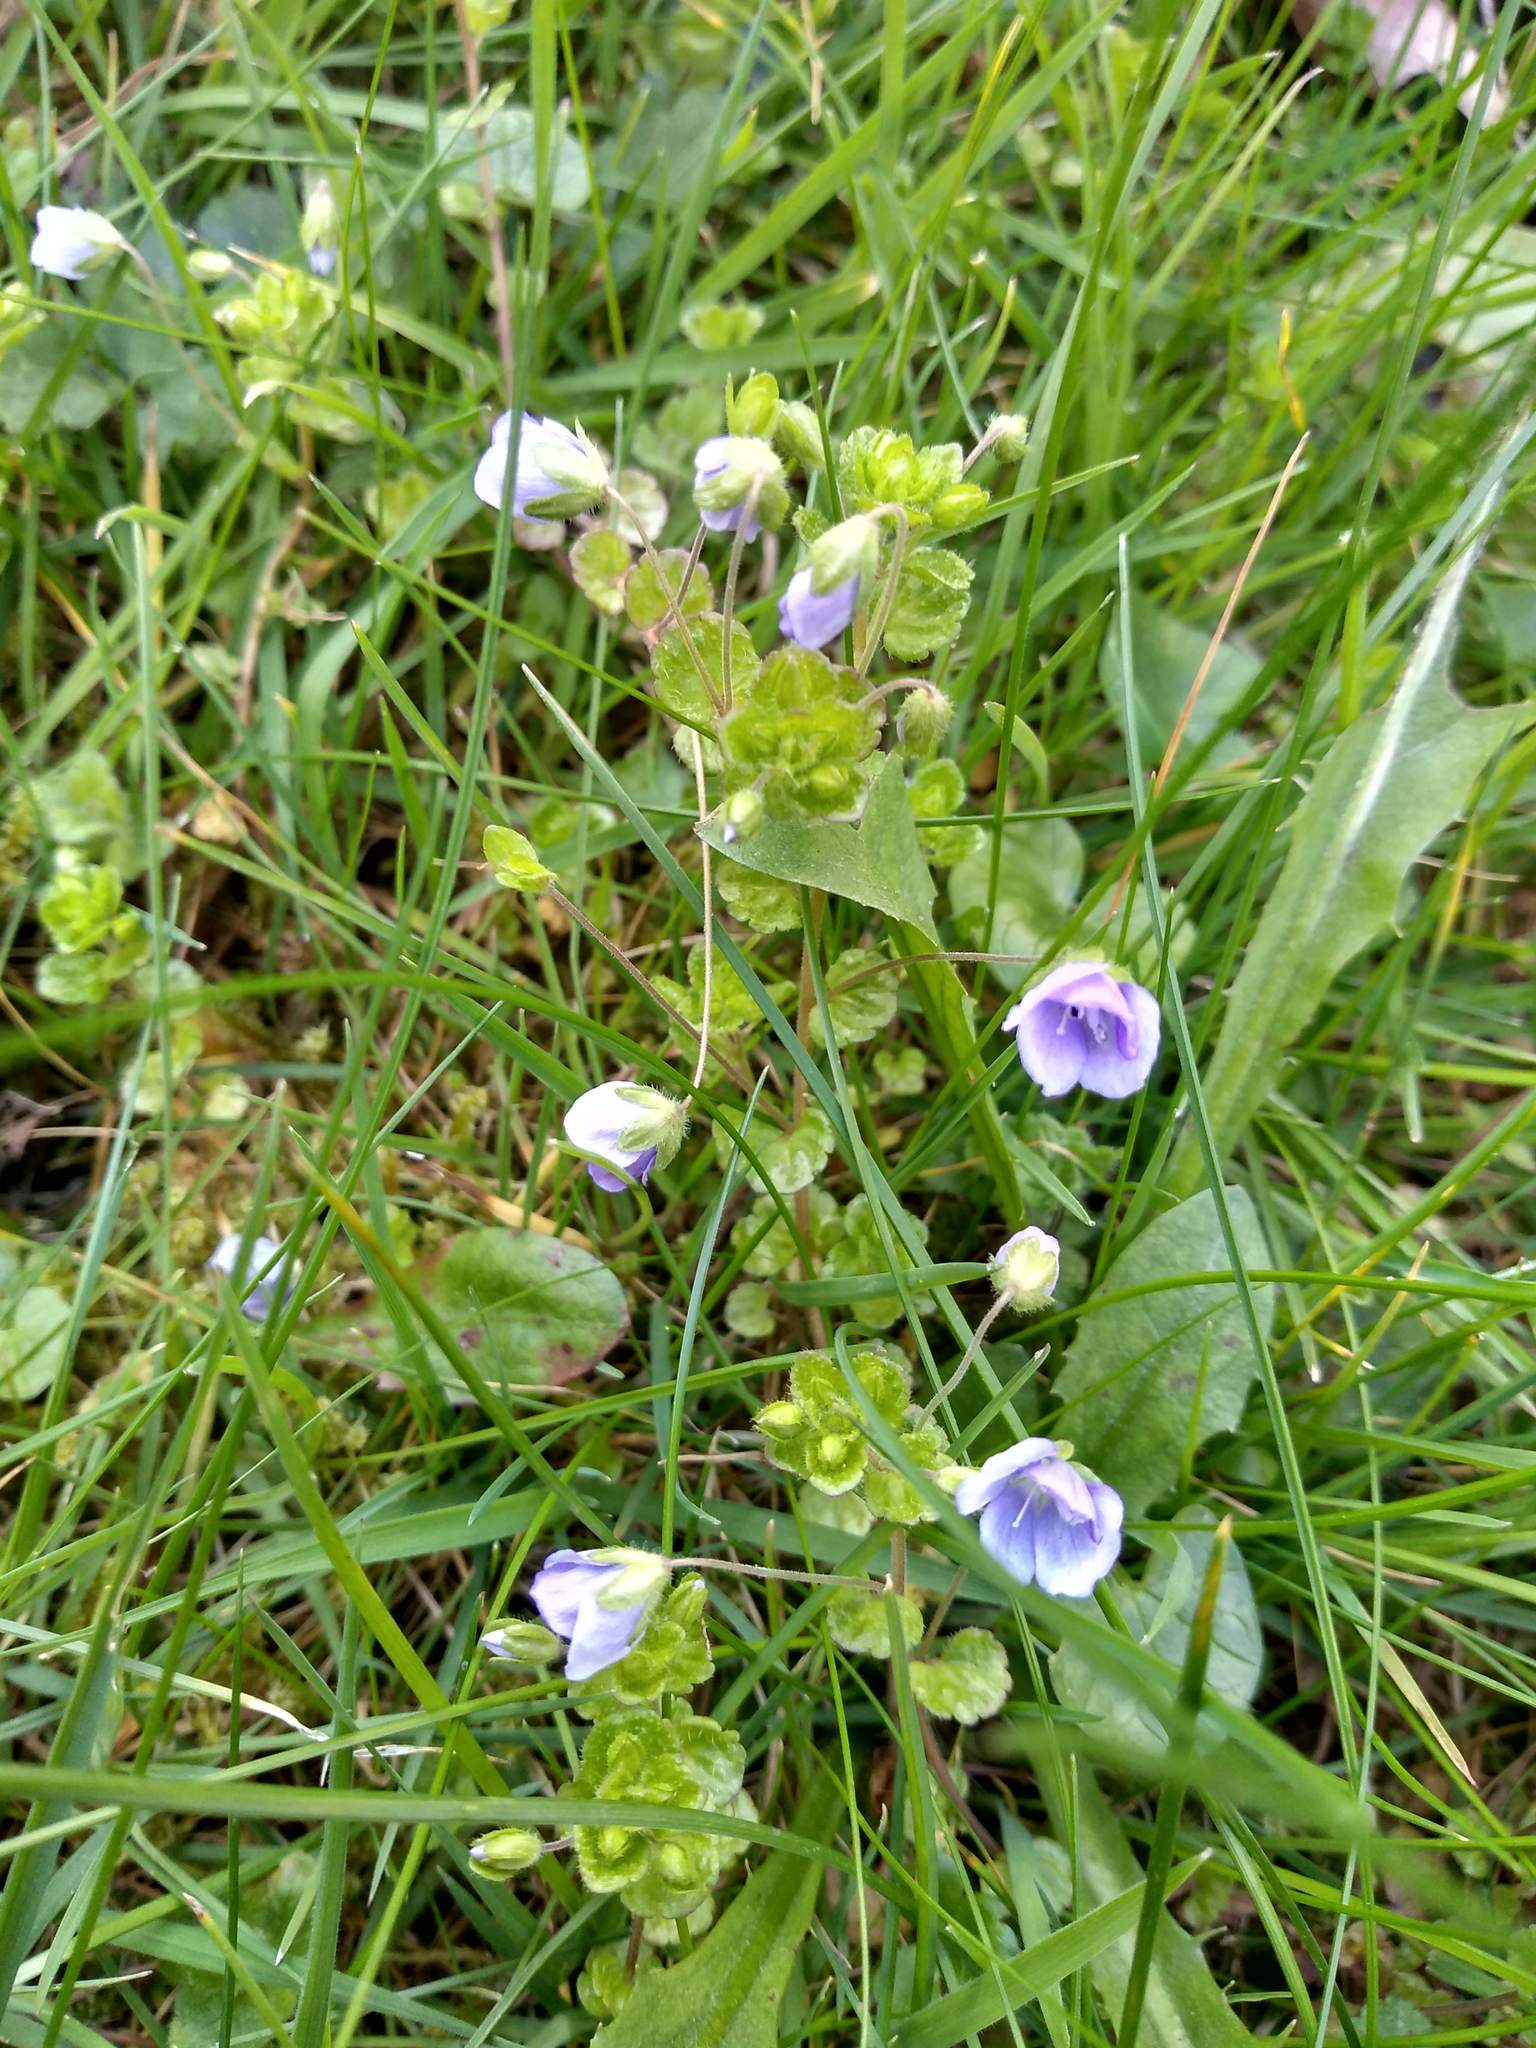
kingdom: Plantae
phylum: Tracheophyta
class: Magnoliopsida
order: Lamiales
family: Plantaginaceae
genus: Veronica
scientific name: Veronica filiformis
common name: Slender speedwell
